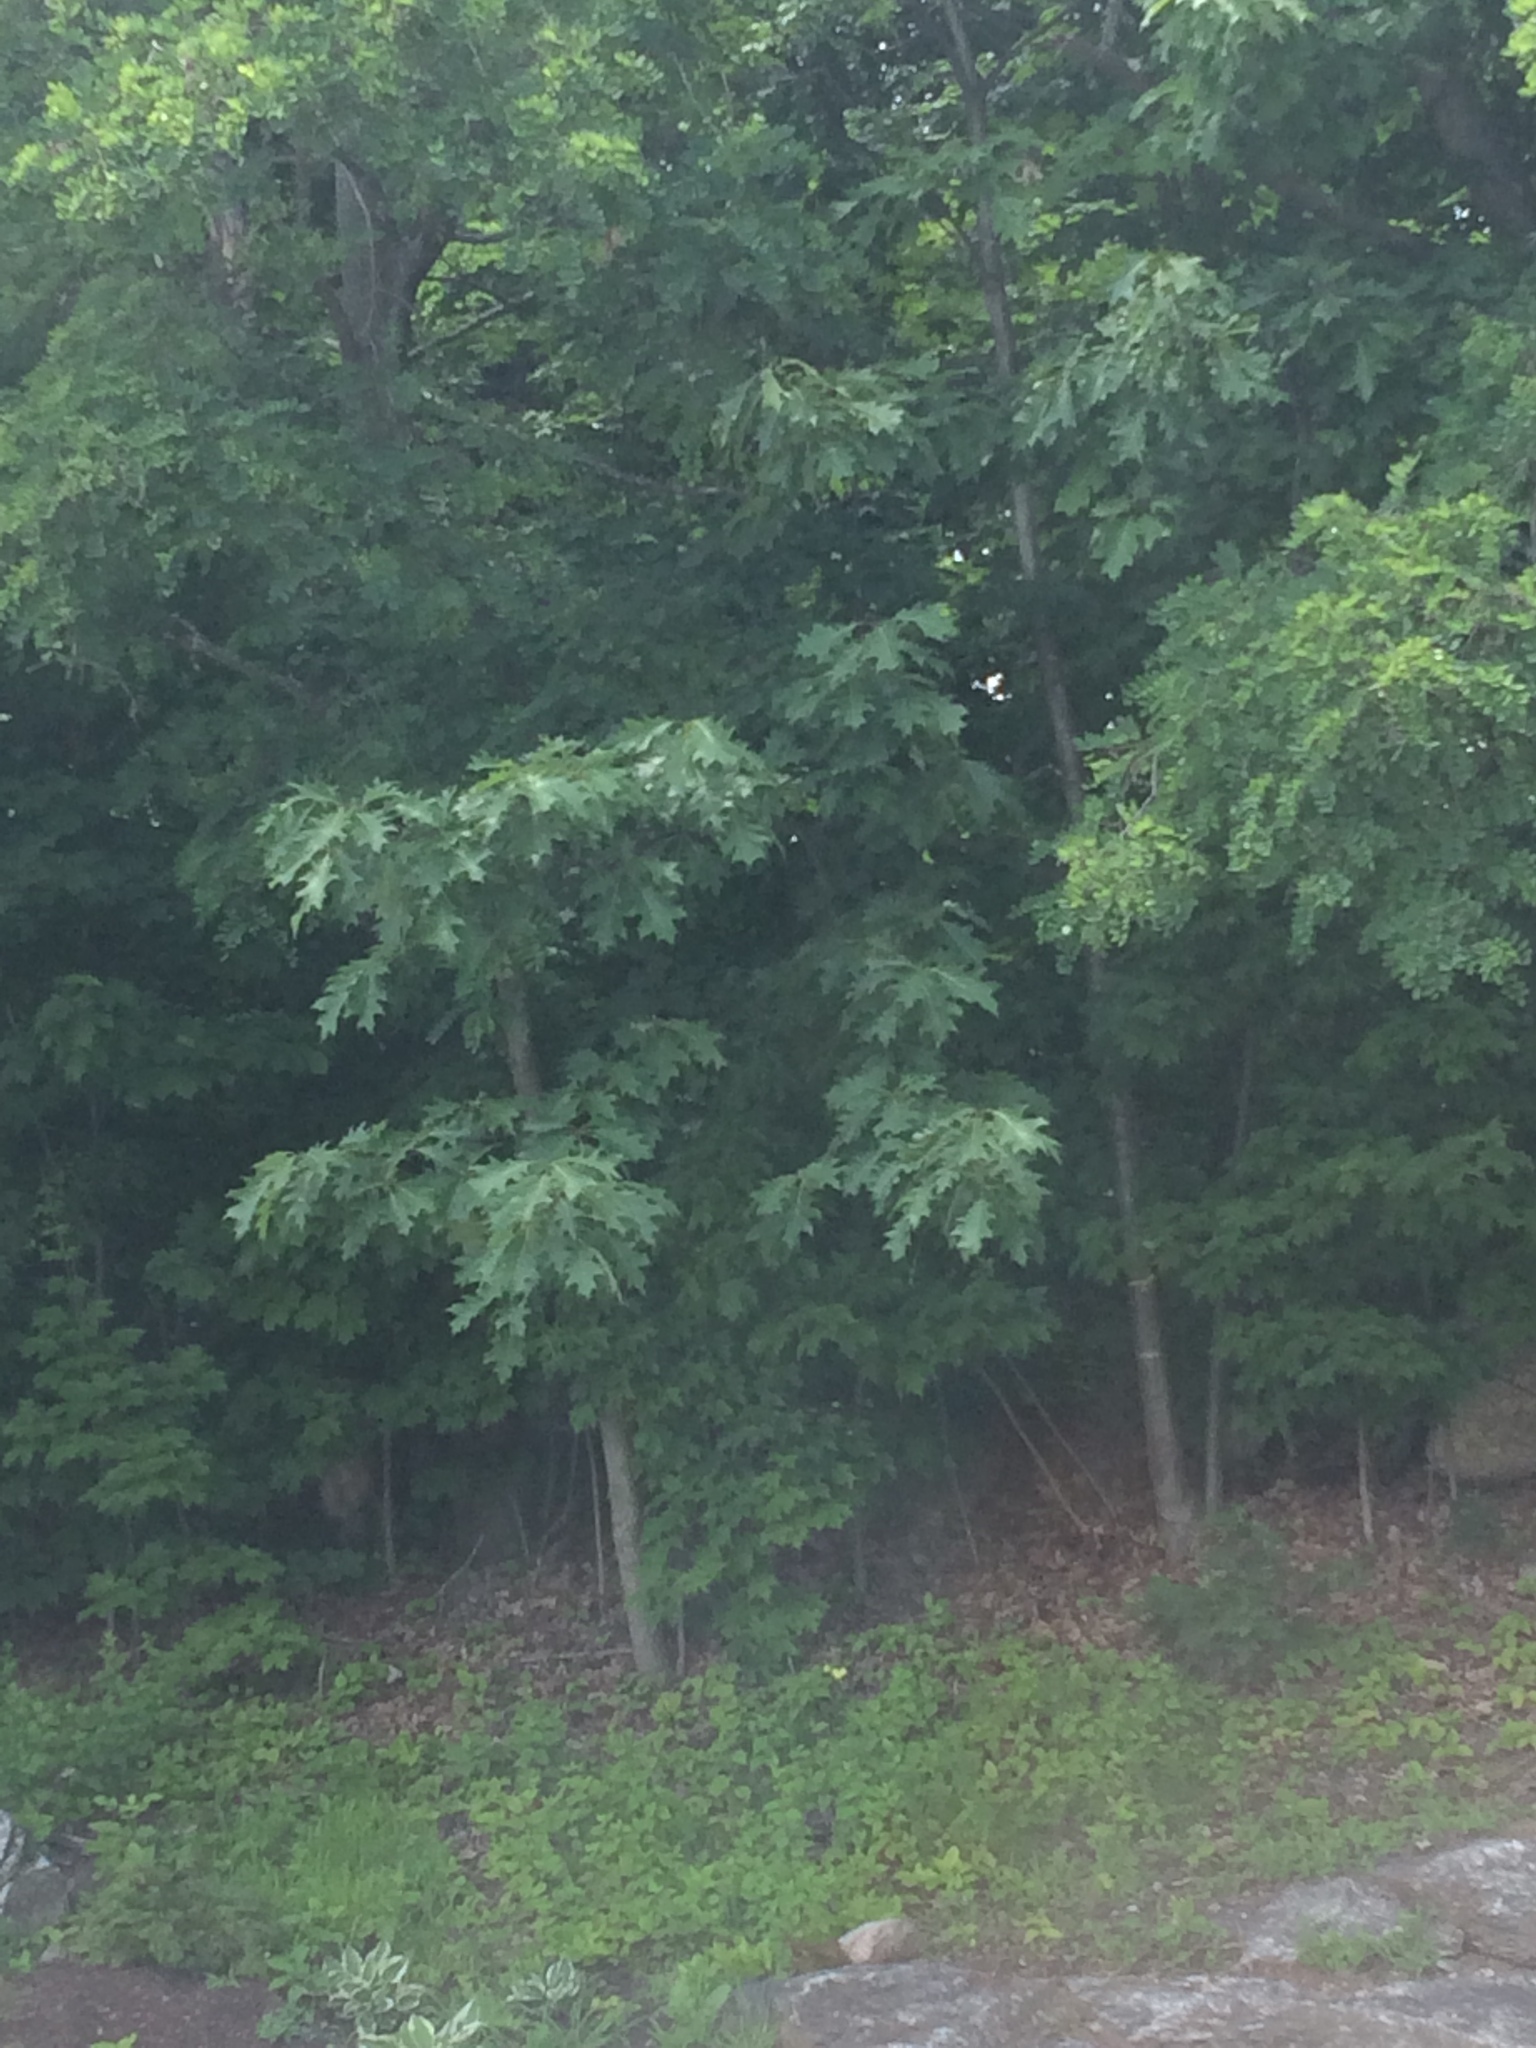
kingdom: Plantae
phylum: Tracheophyta
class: Magnoliopsida
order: Fagales
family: Fagaceae
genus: Quercus
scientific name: Quercus rubra
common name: Red oak
